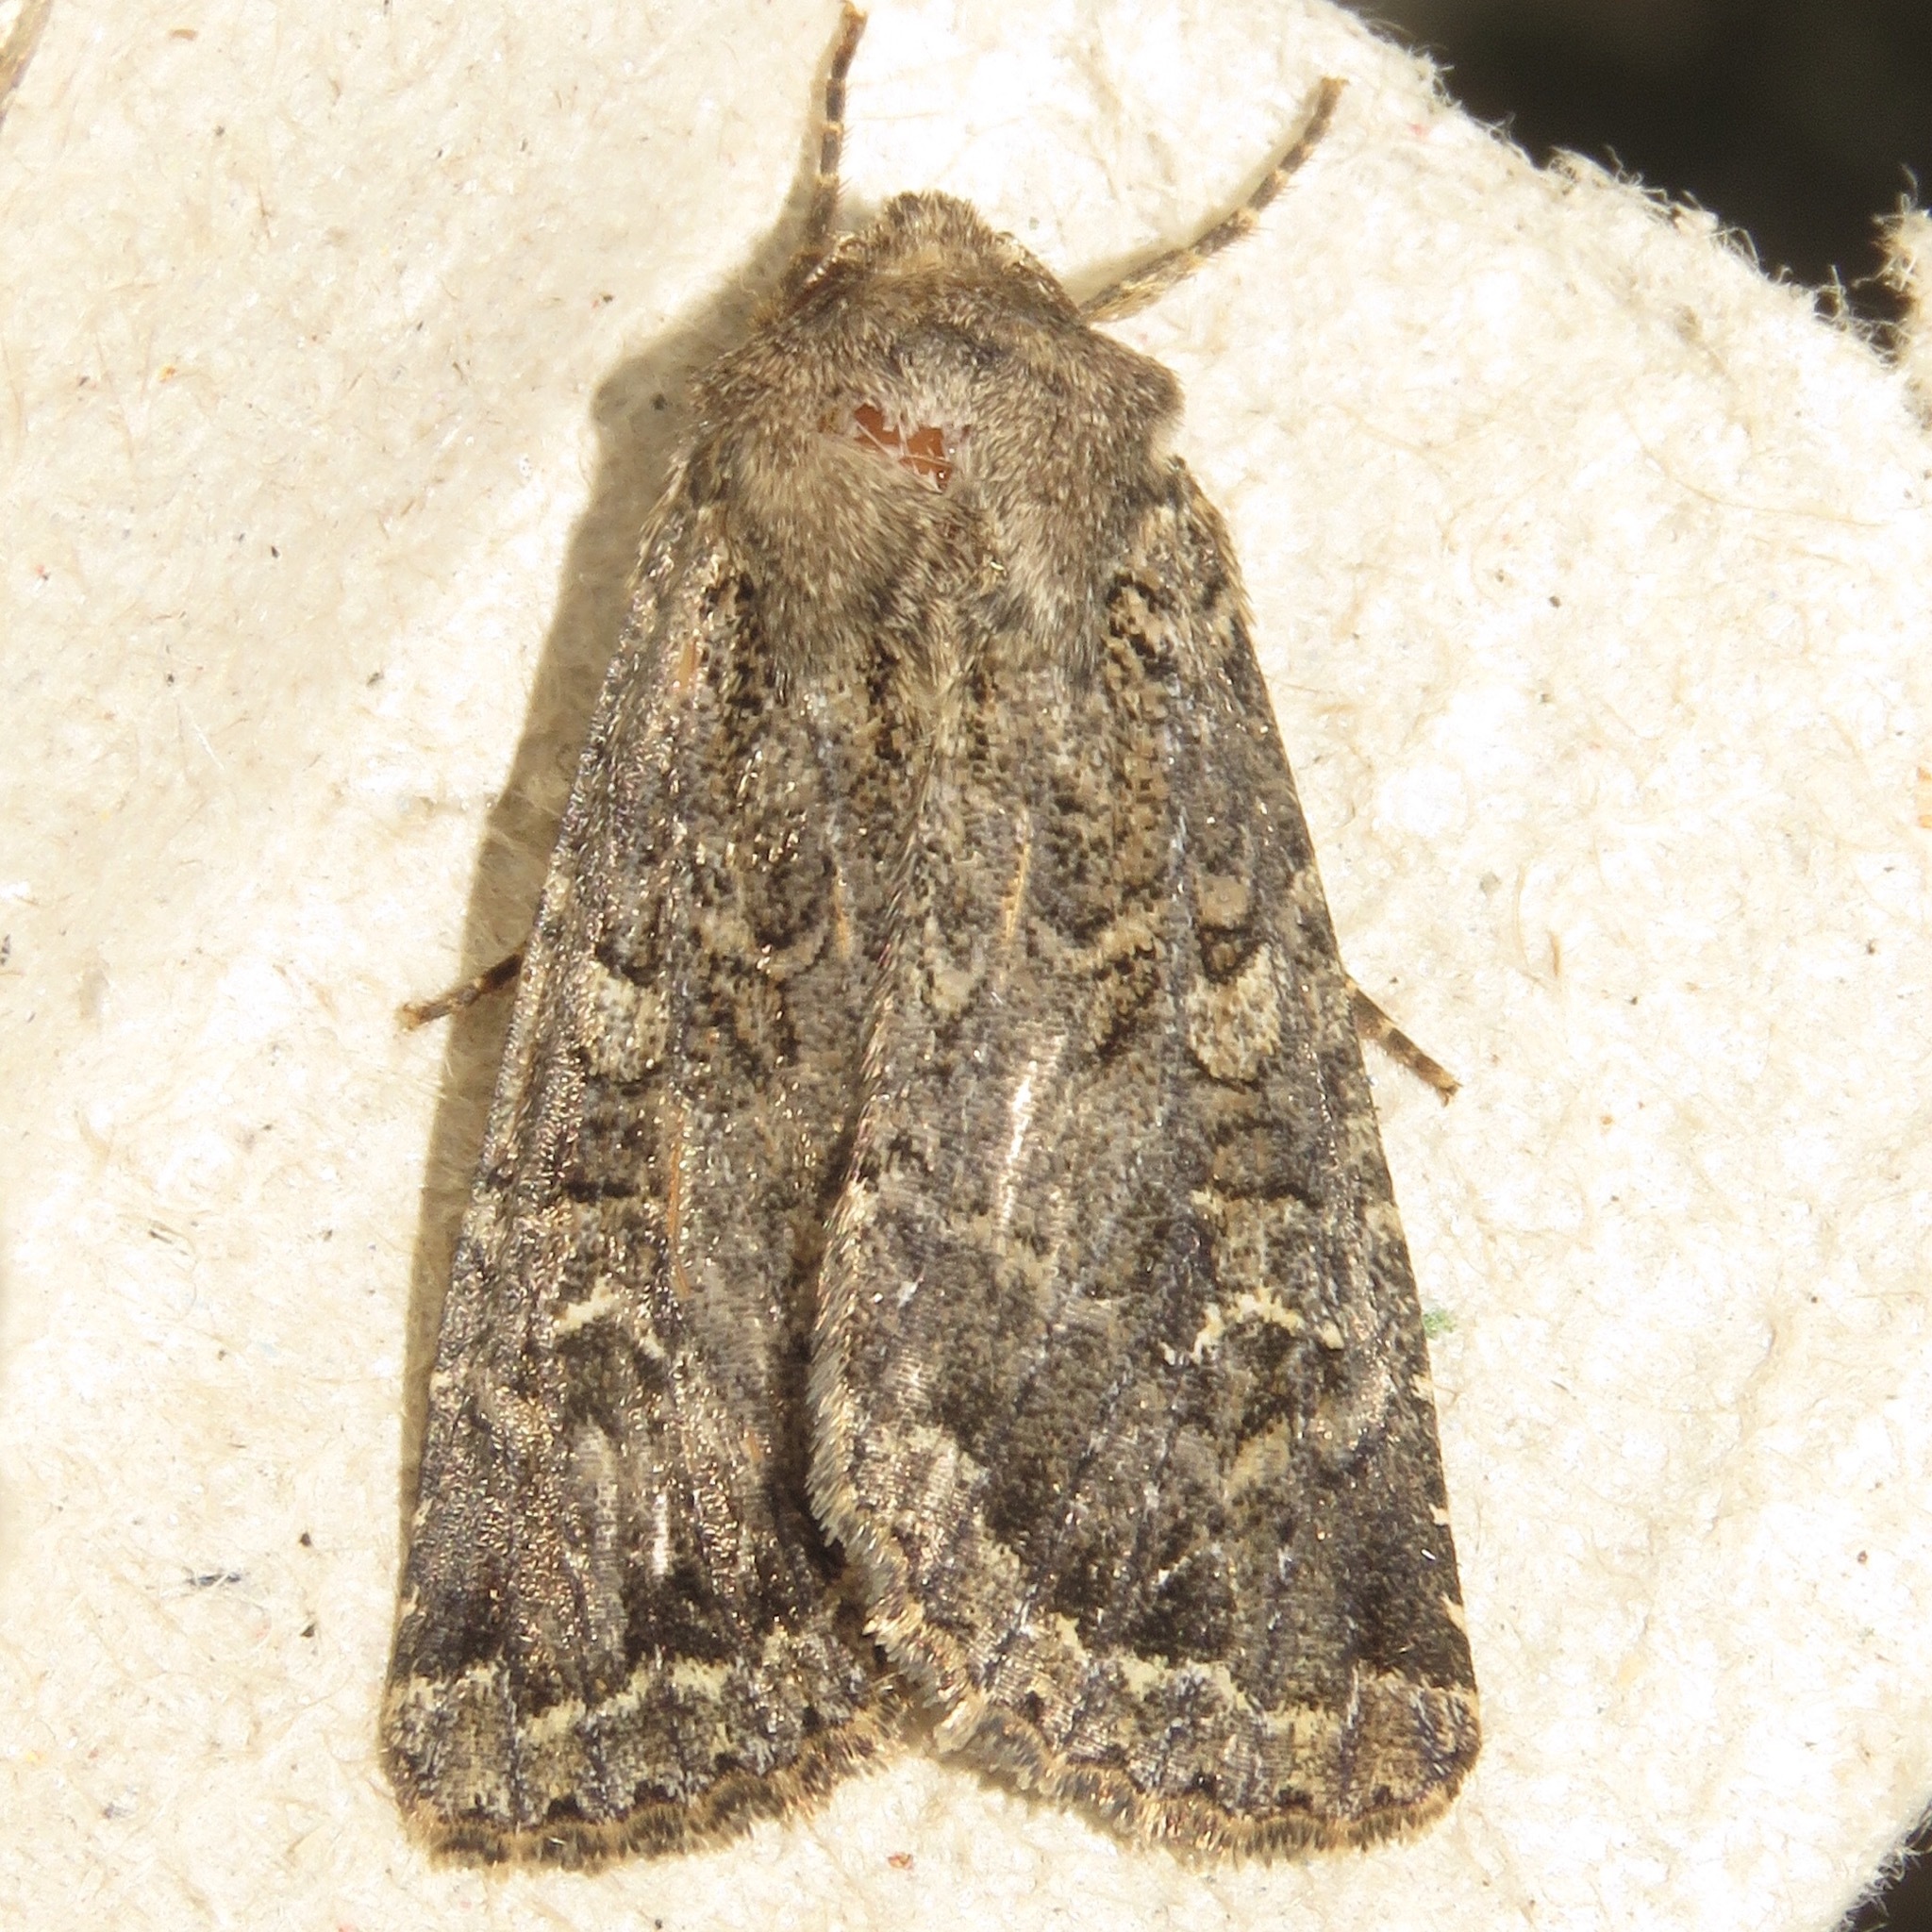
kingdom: Animalia
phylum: Arthropoda
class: Insecta
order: Lepidoptera
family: Noctuidae
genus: Apamea
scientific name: Apamea devastator
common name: Glassy cutworm
